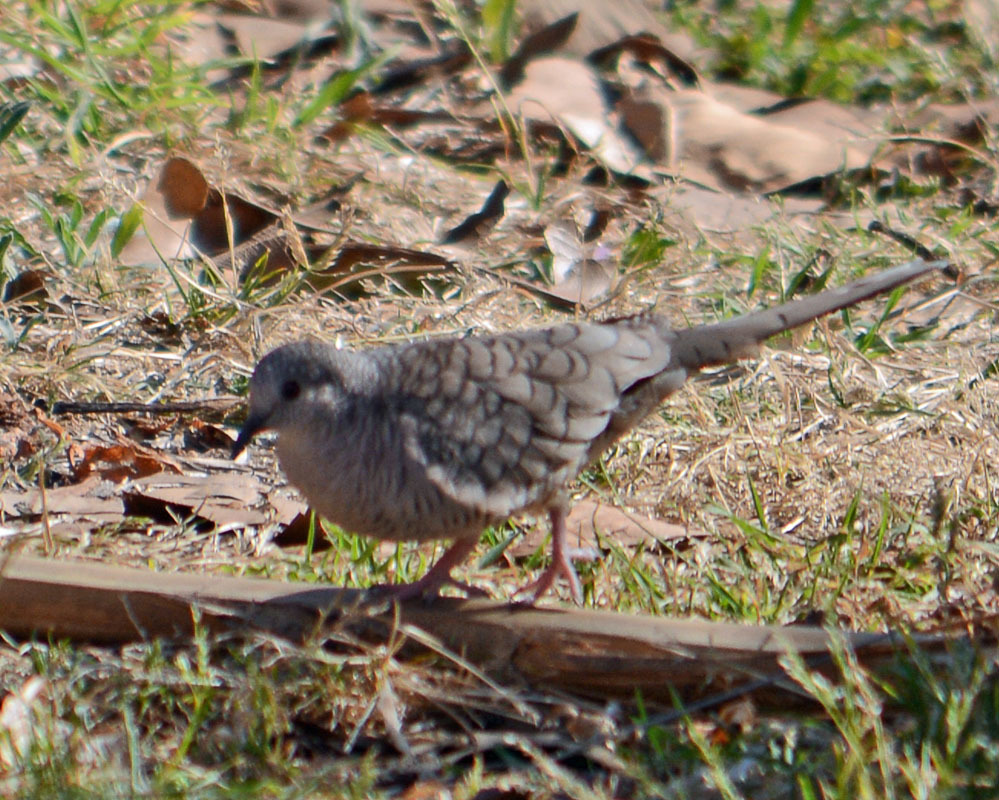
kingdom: Animalia
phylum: Chordata
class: Aves
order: Columbiformes
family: Columbidae
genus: Columbina
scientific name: Columbina inca
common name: Inca dove
